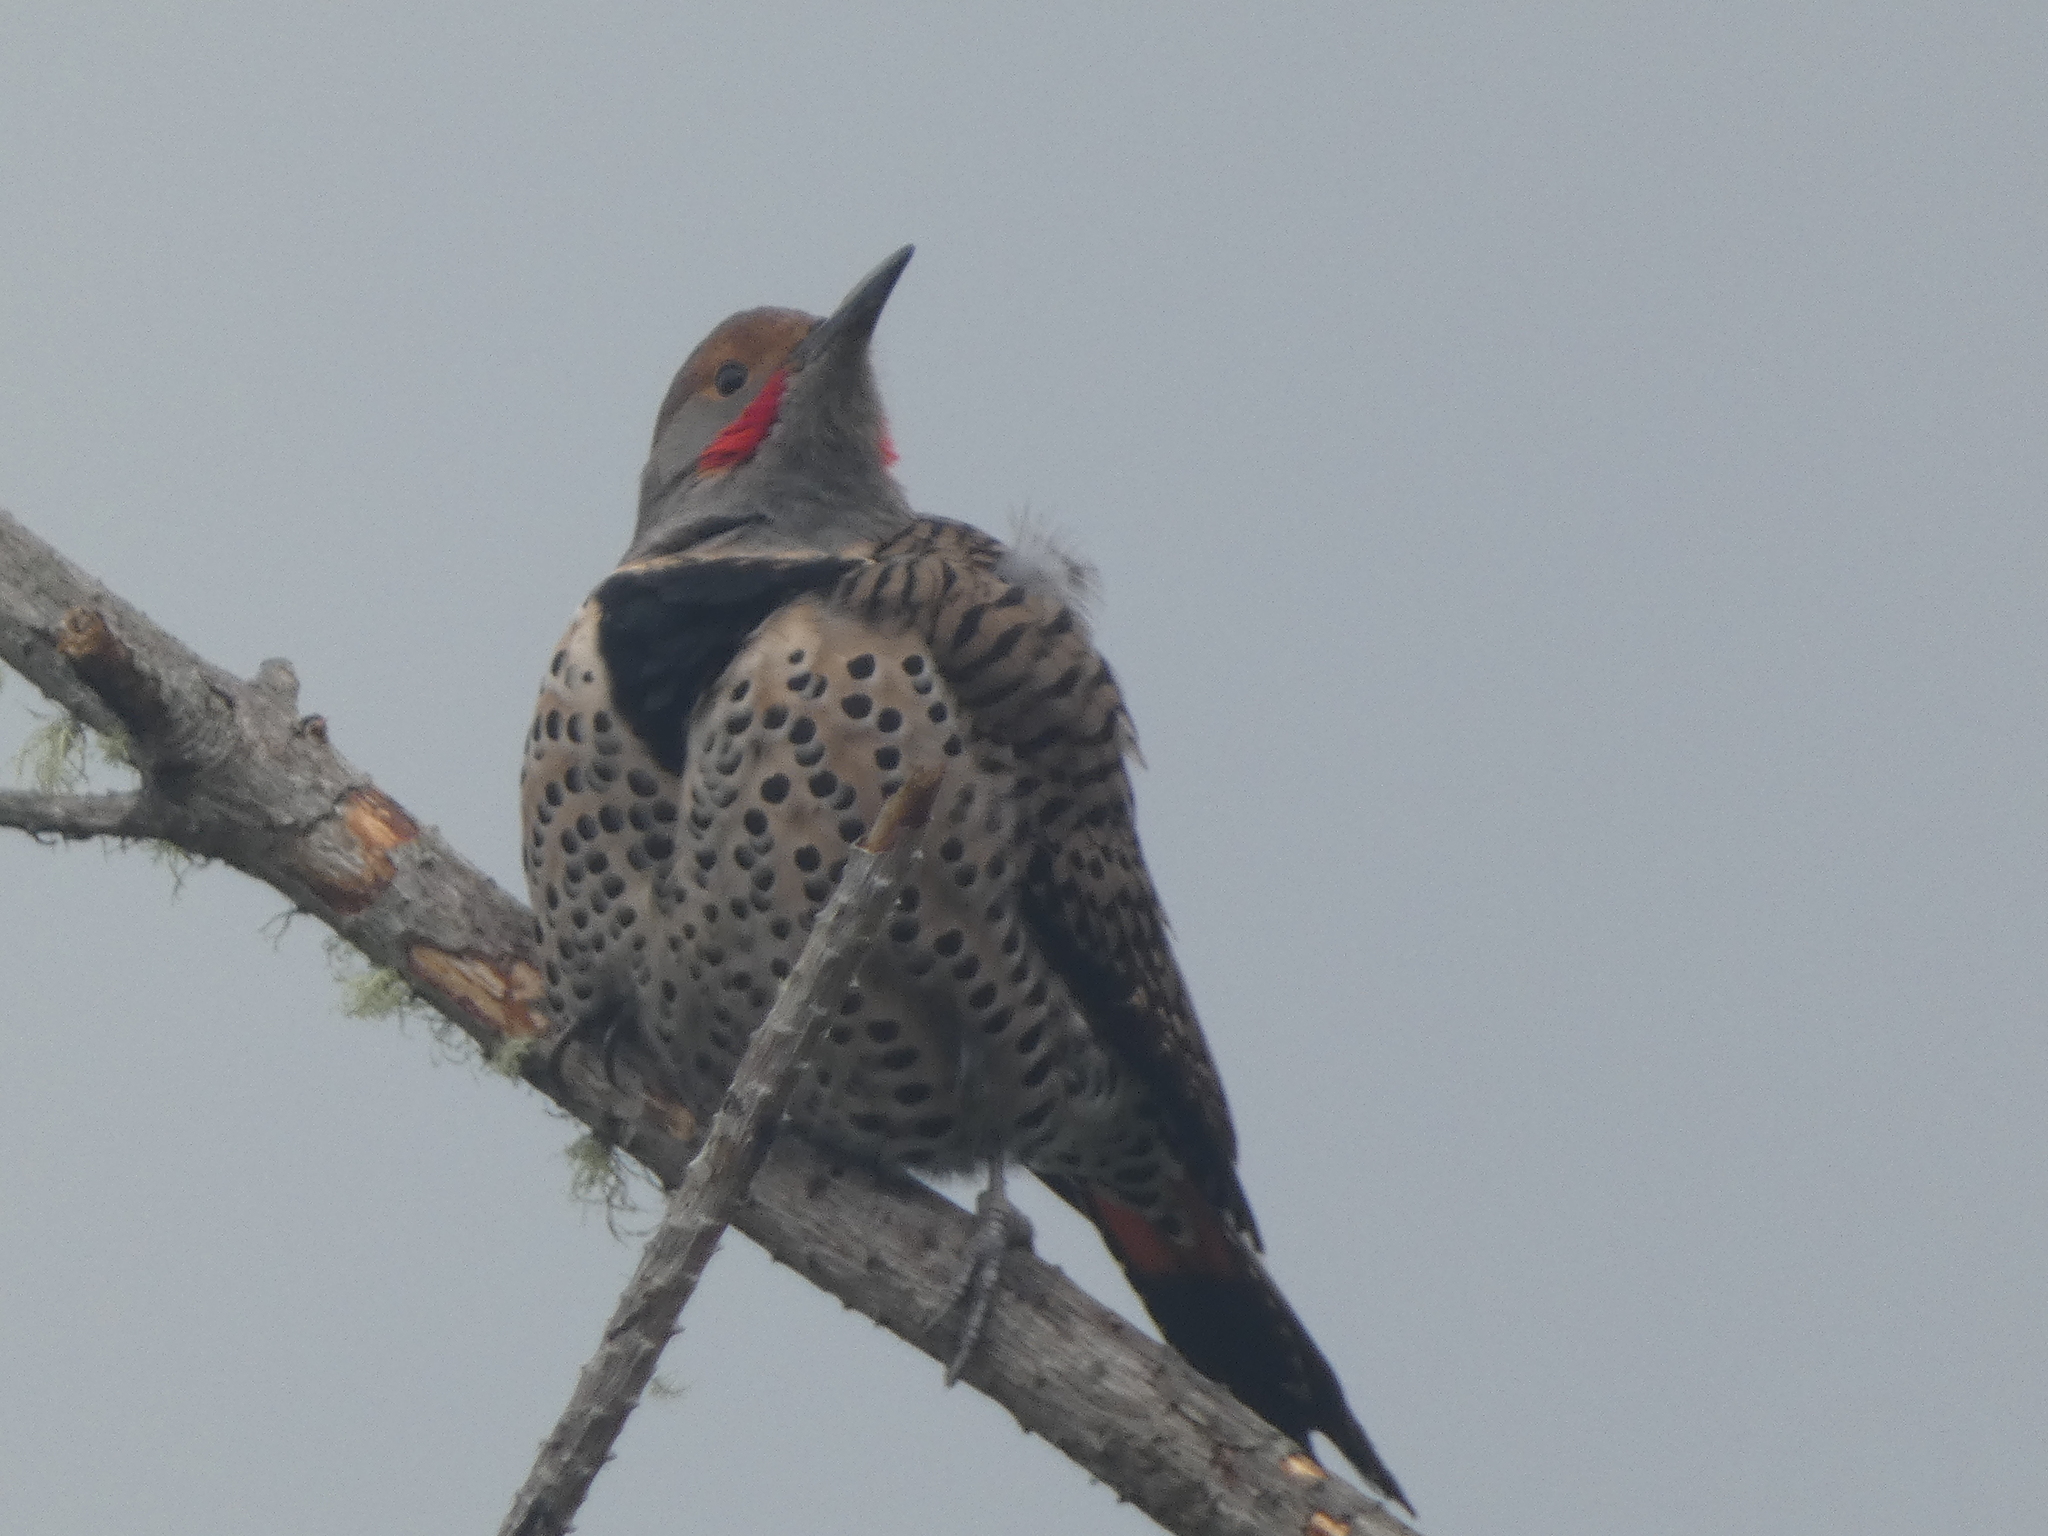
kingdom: Animalia
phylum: Chordata
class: Aves
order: Piciformes
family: Picidae
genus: Colaptes
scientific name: Colaptes auratus
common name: Northern flicker
